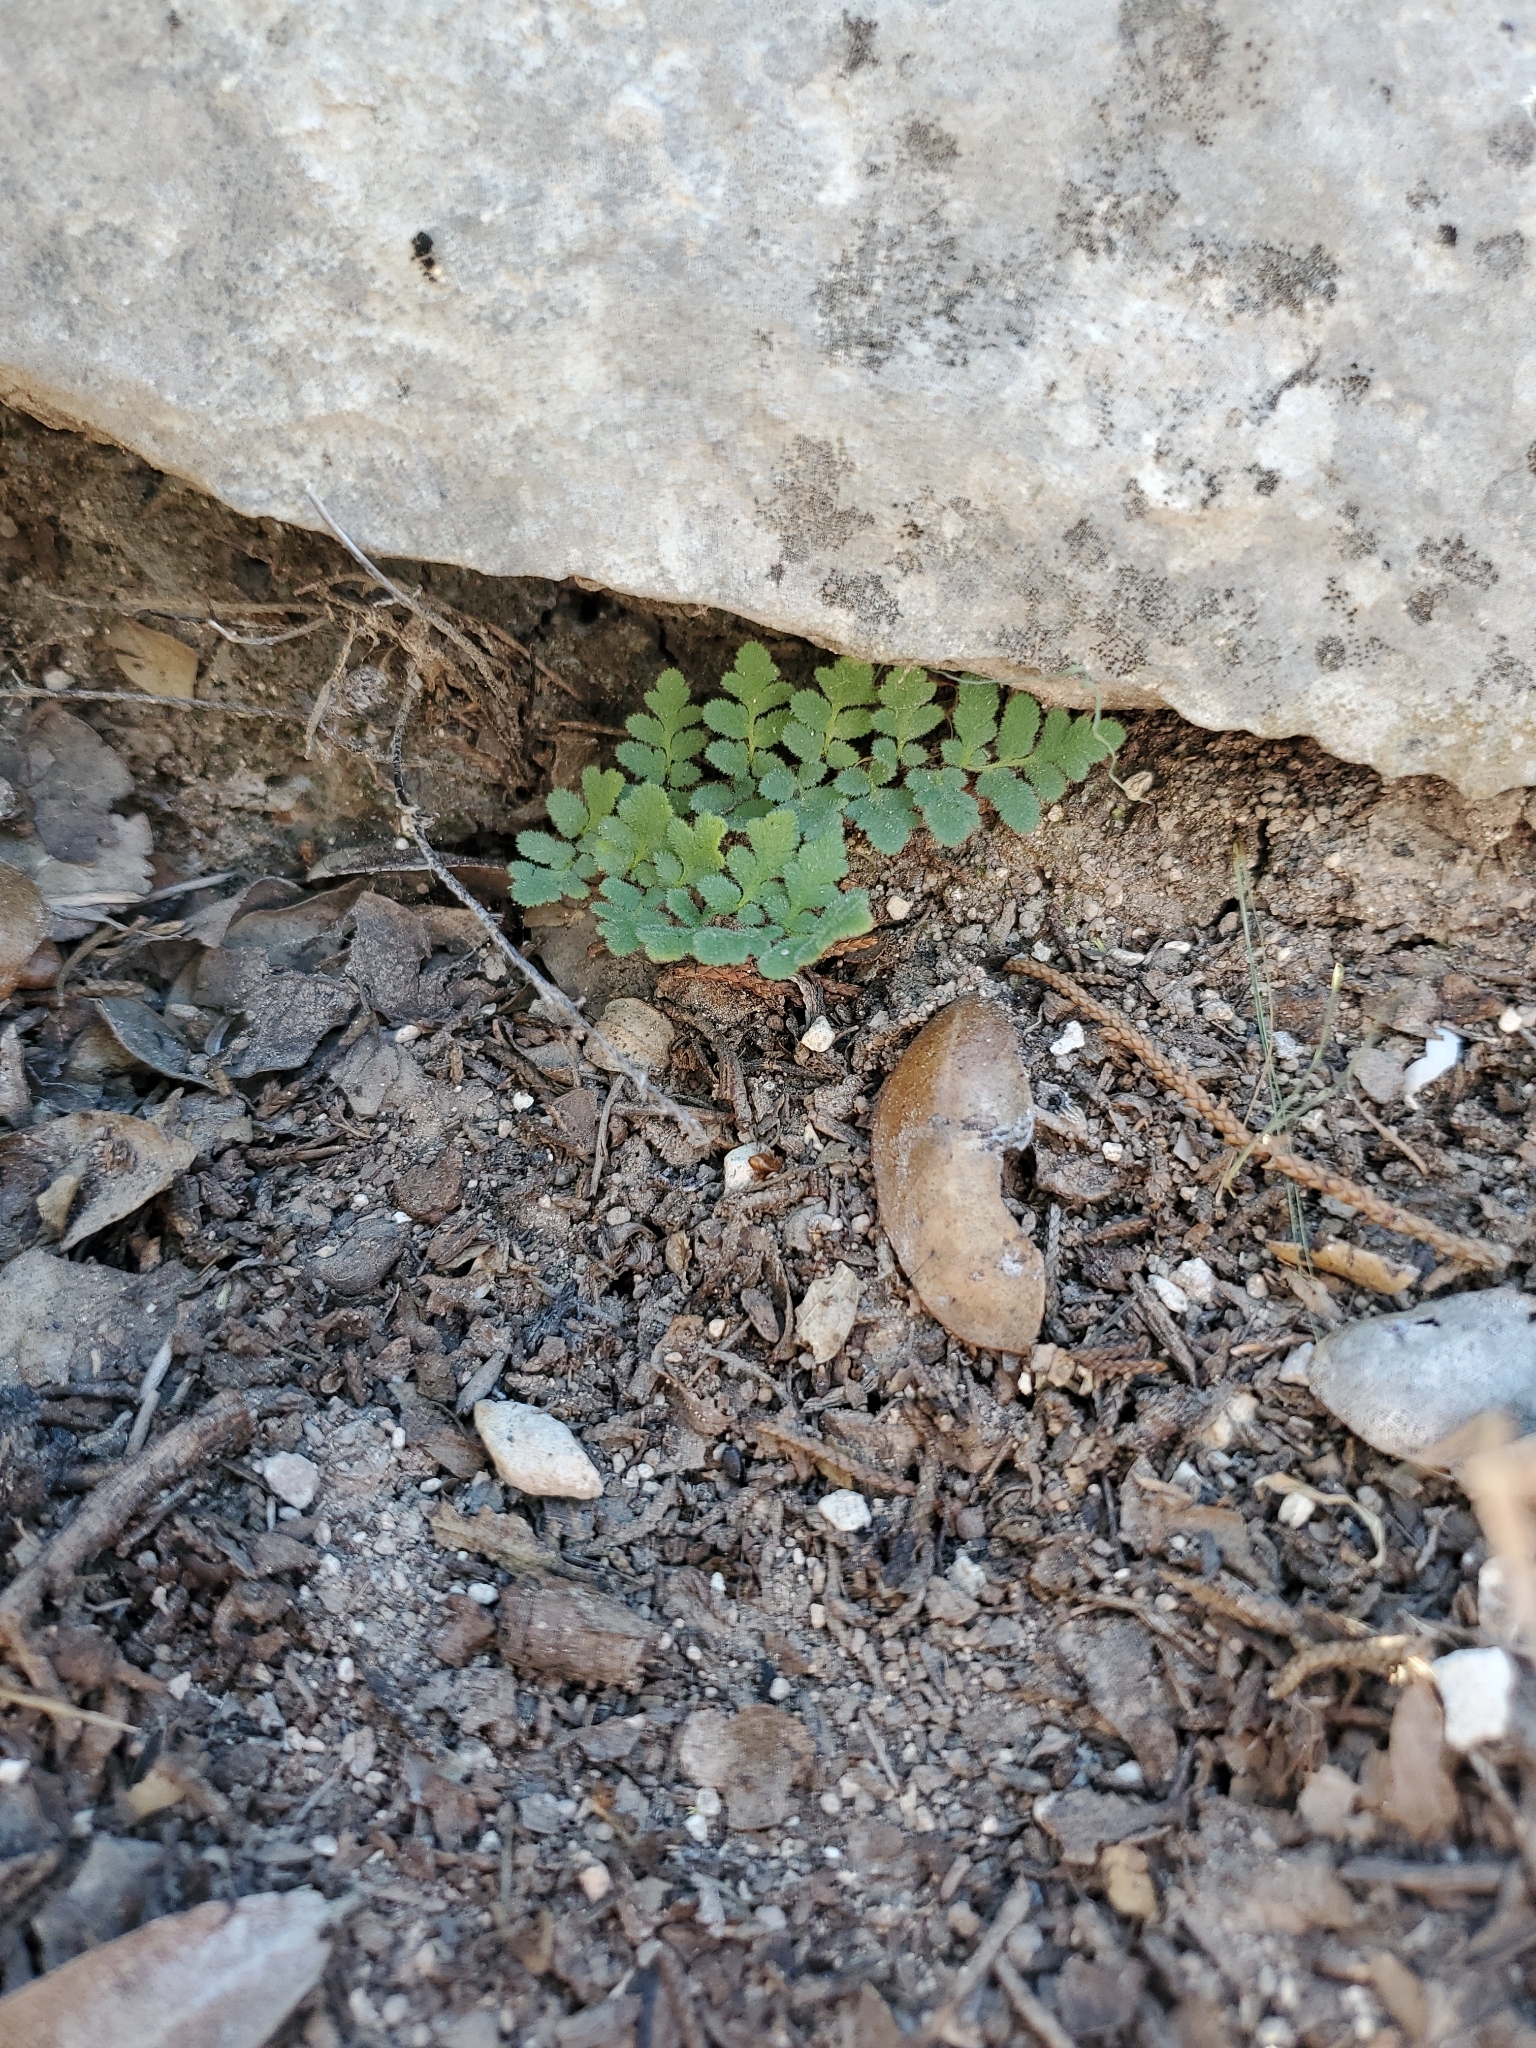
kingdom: Plantae
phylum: Tracheophyta
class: Polypodiopsida
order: Polypodiales
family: Pteridaceae
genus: Myriopteris
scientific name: Myriopteris scabra
